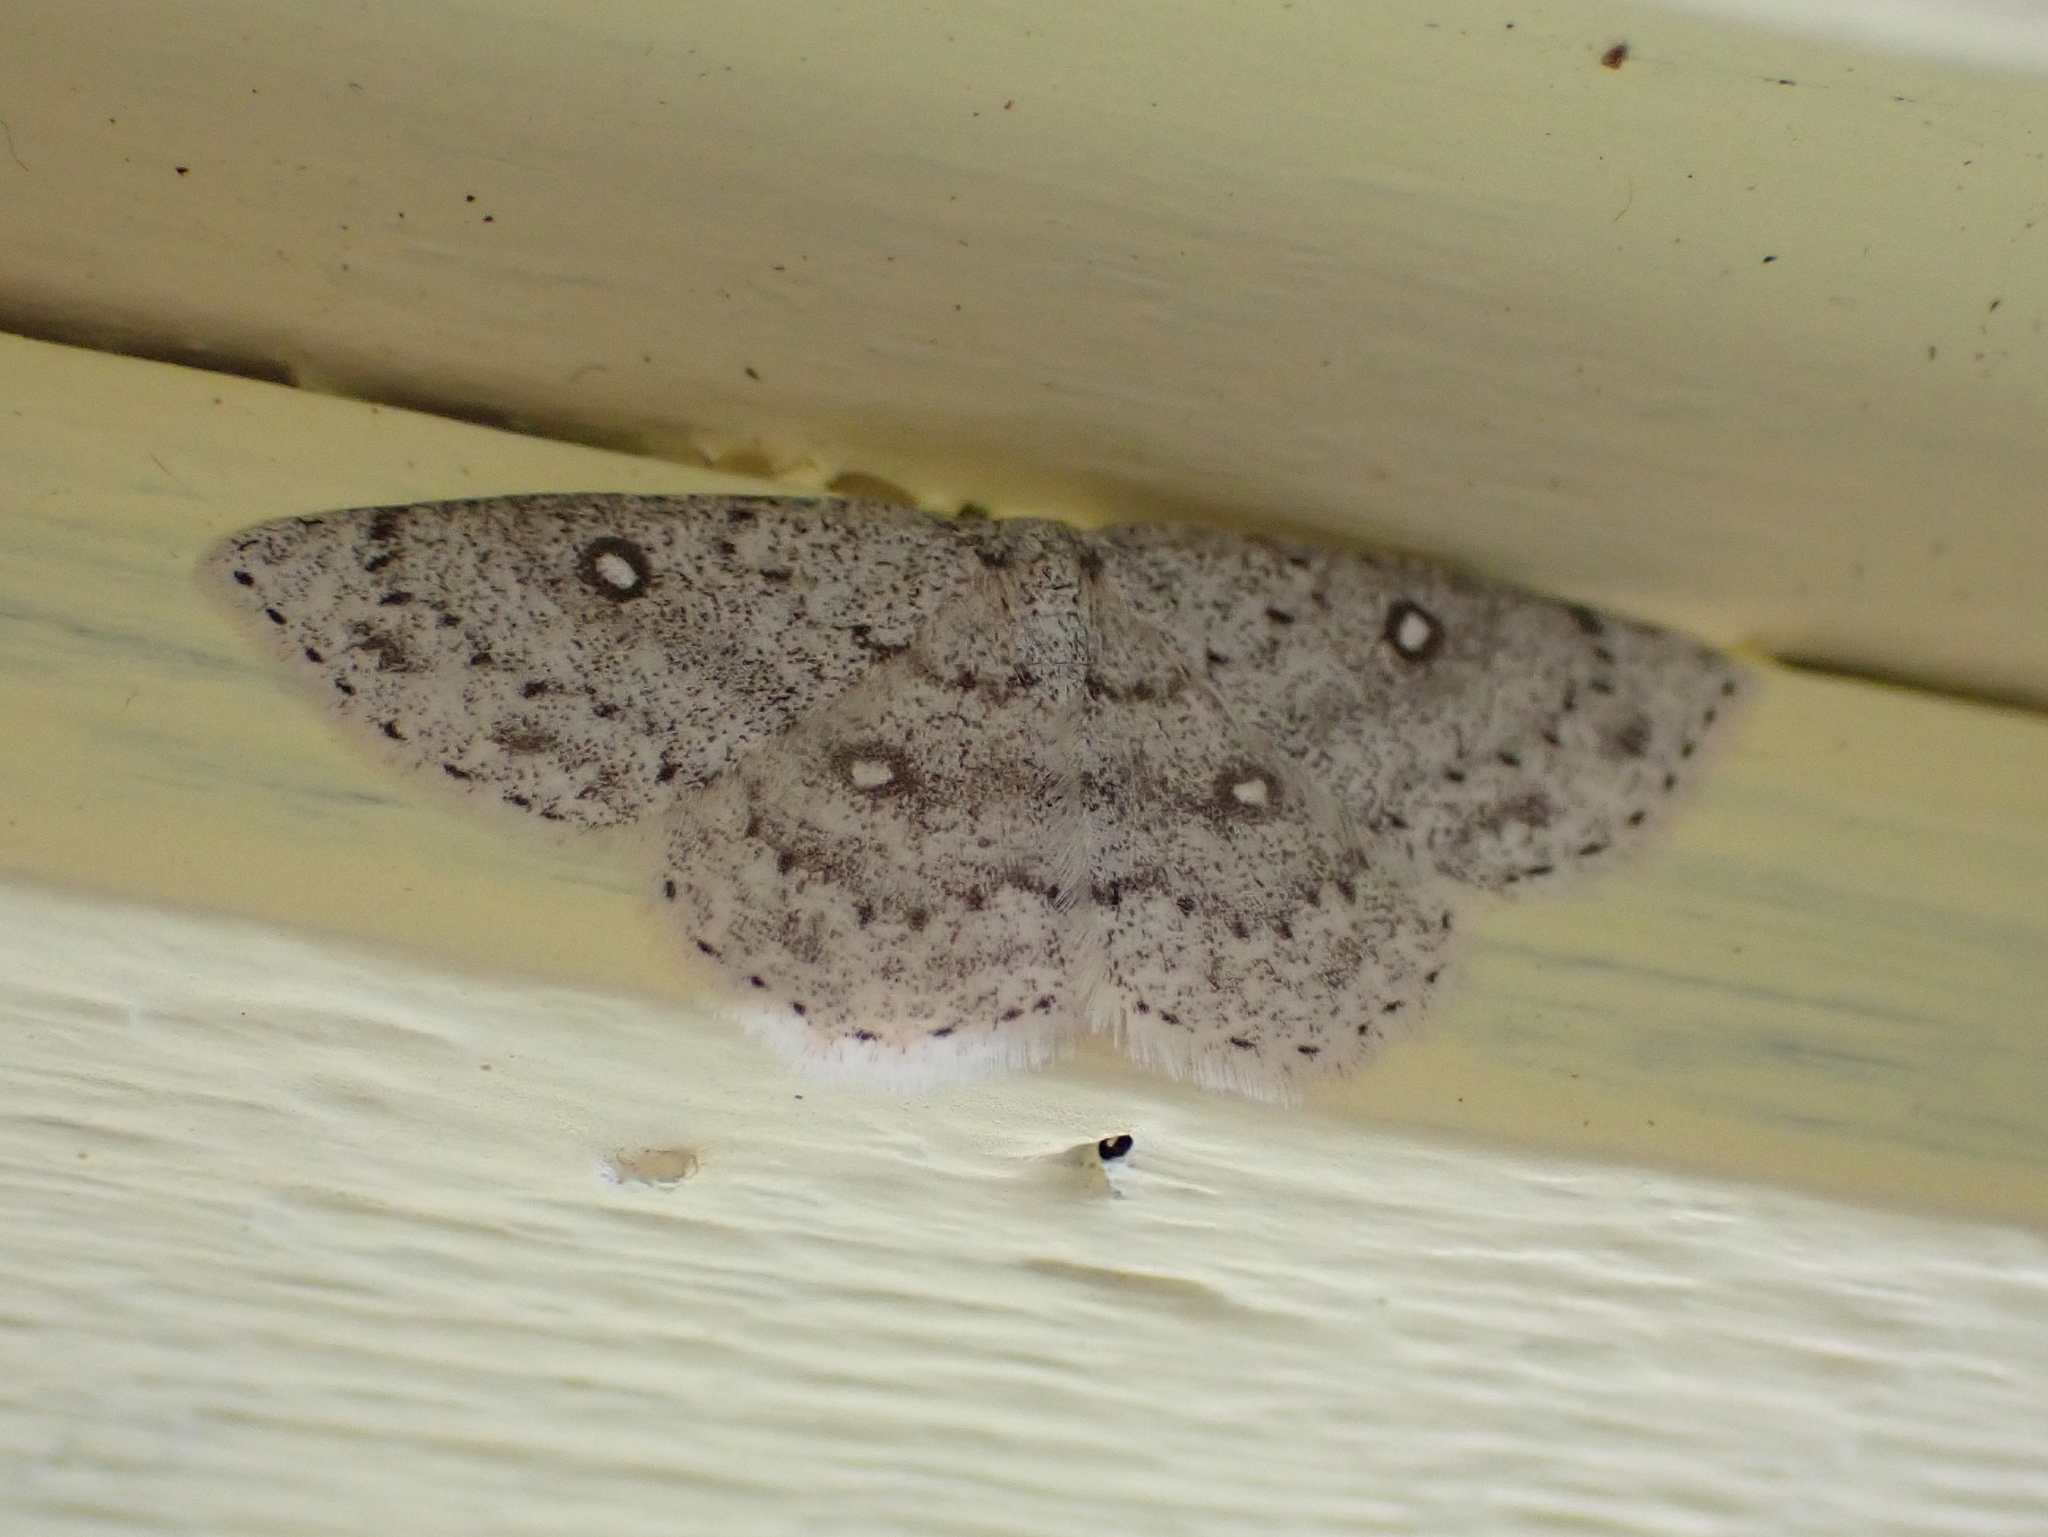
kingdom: Animalia
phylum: Arthropoda
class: Insecta
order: Lepidoptera
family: Geometridae
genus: Cyclophora
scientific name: Cyclophora pendulinaria
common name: Sweet fern geometer
